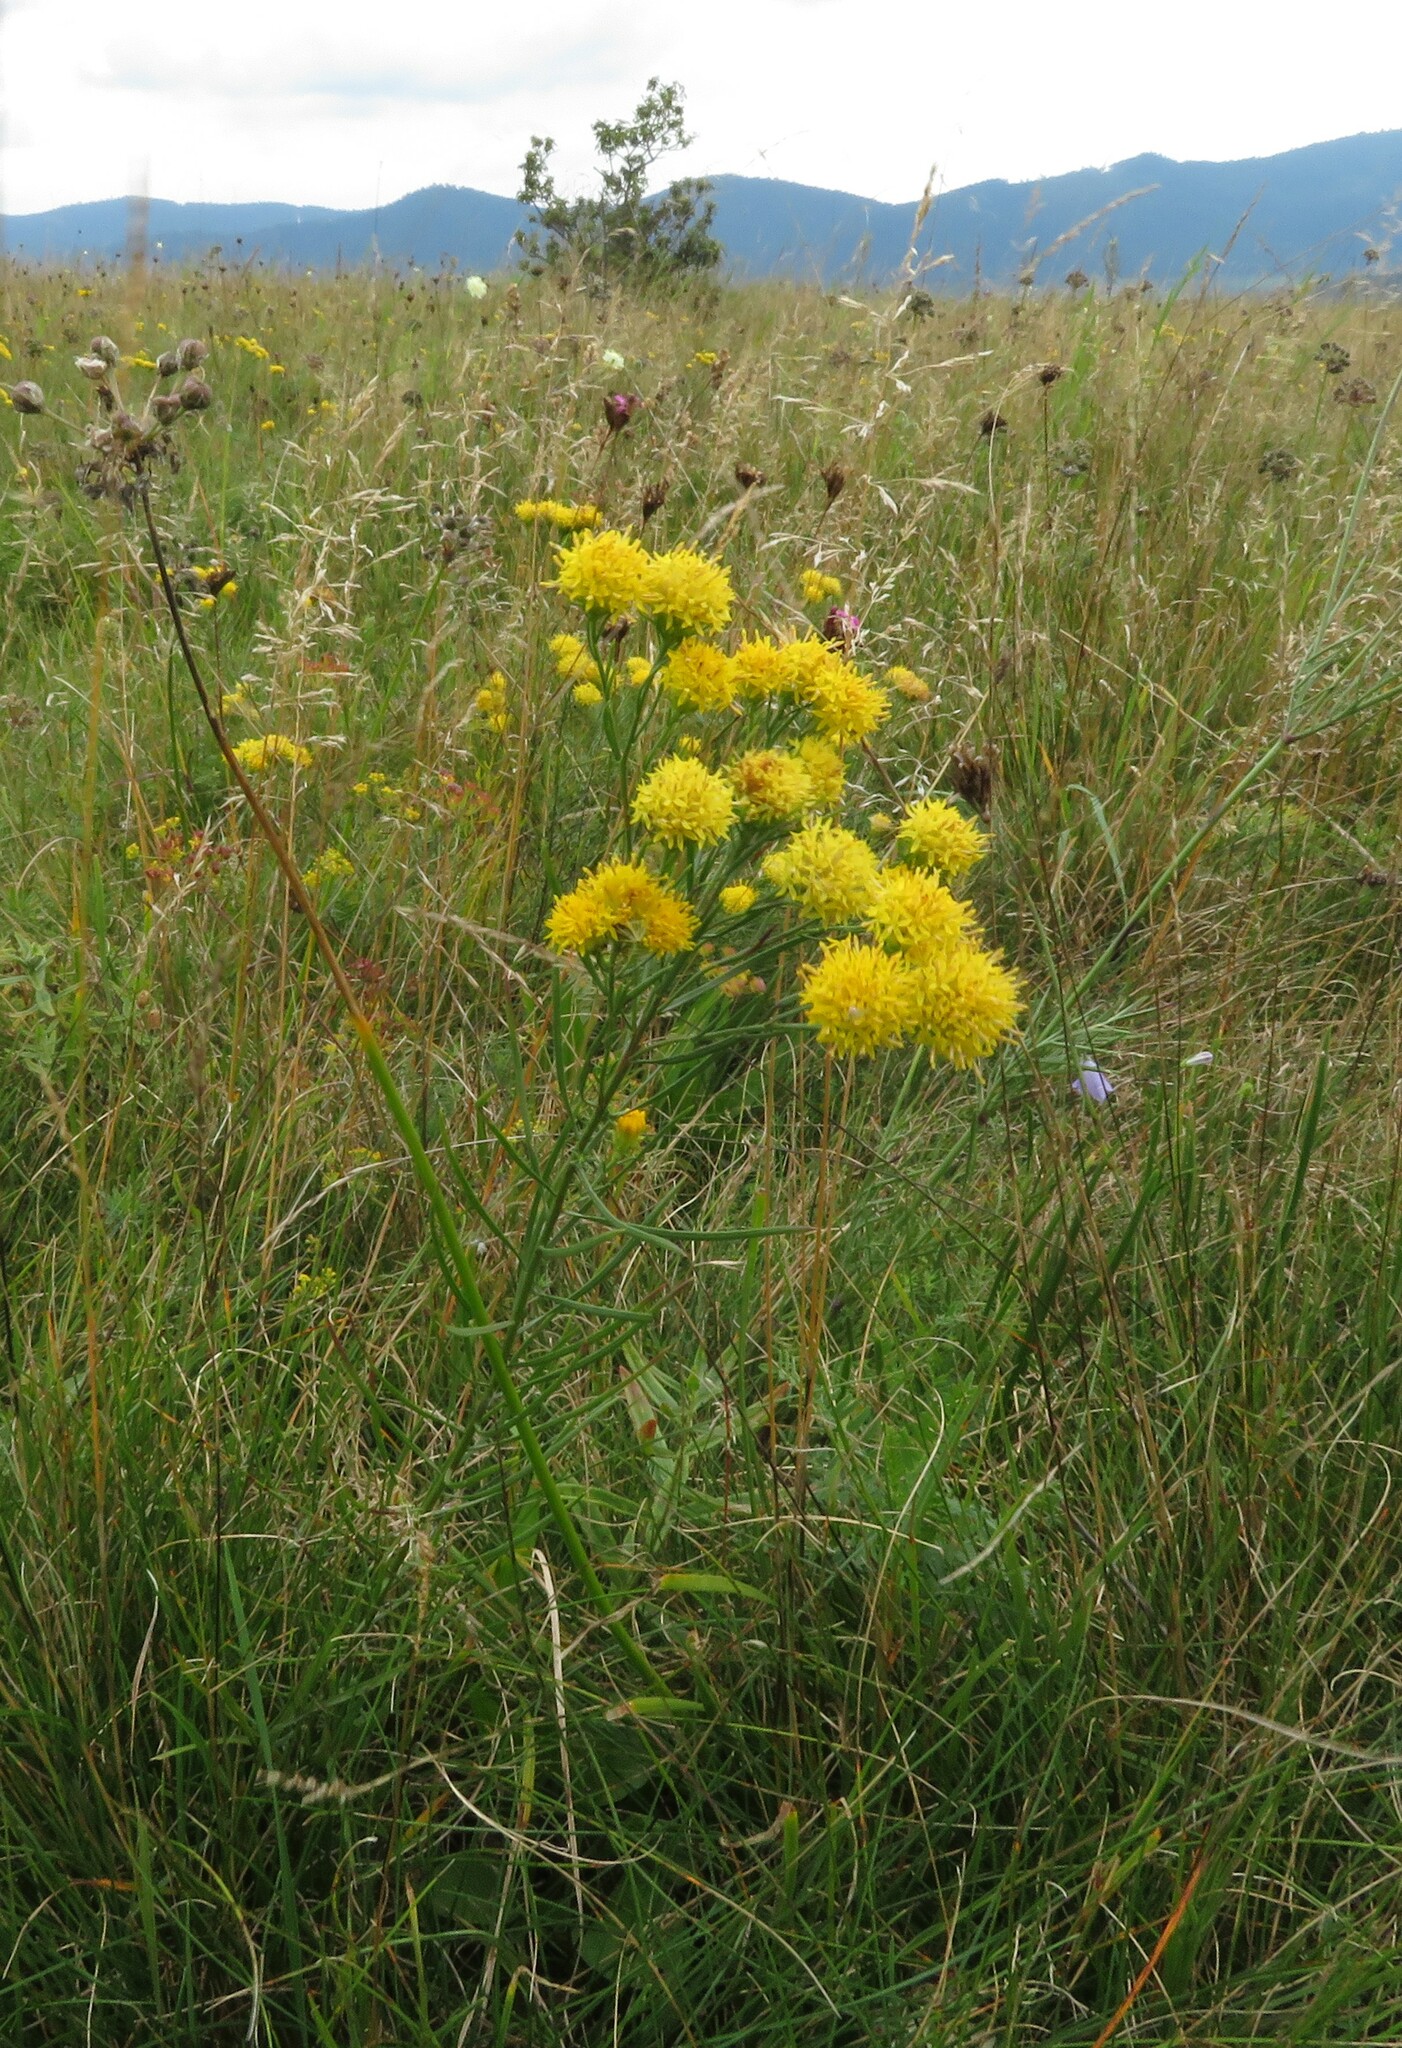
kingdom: Plantae
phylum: Tracheophyta
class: Magnoliopsida
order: Asterales
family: Asteraceae
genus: Galatella
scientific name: Galatella linosyris
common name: Goldilocks aster
